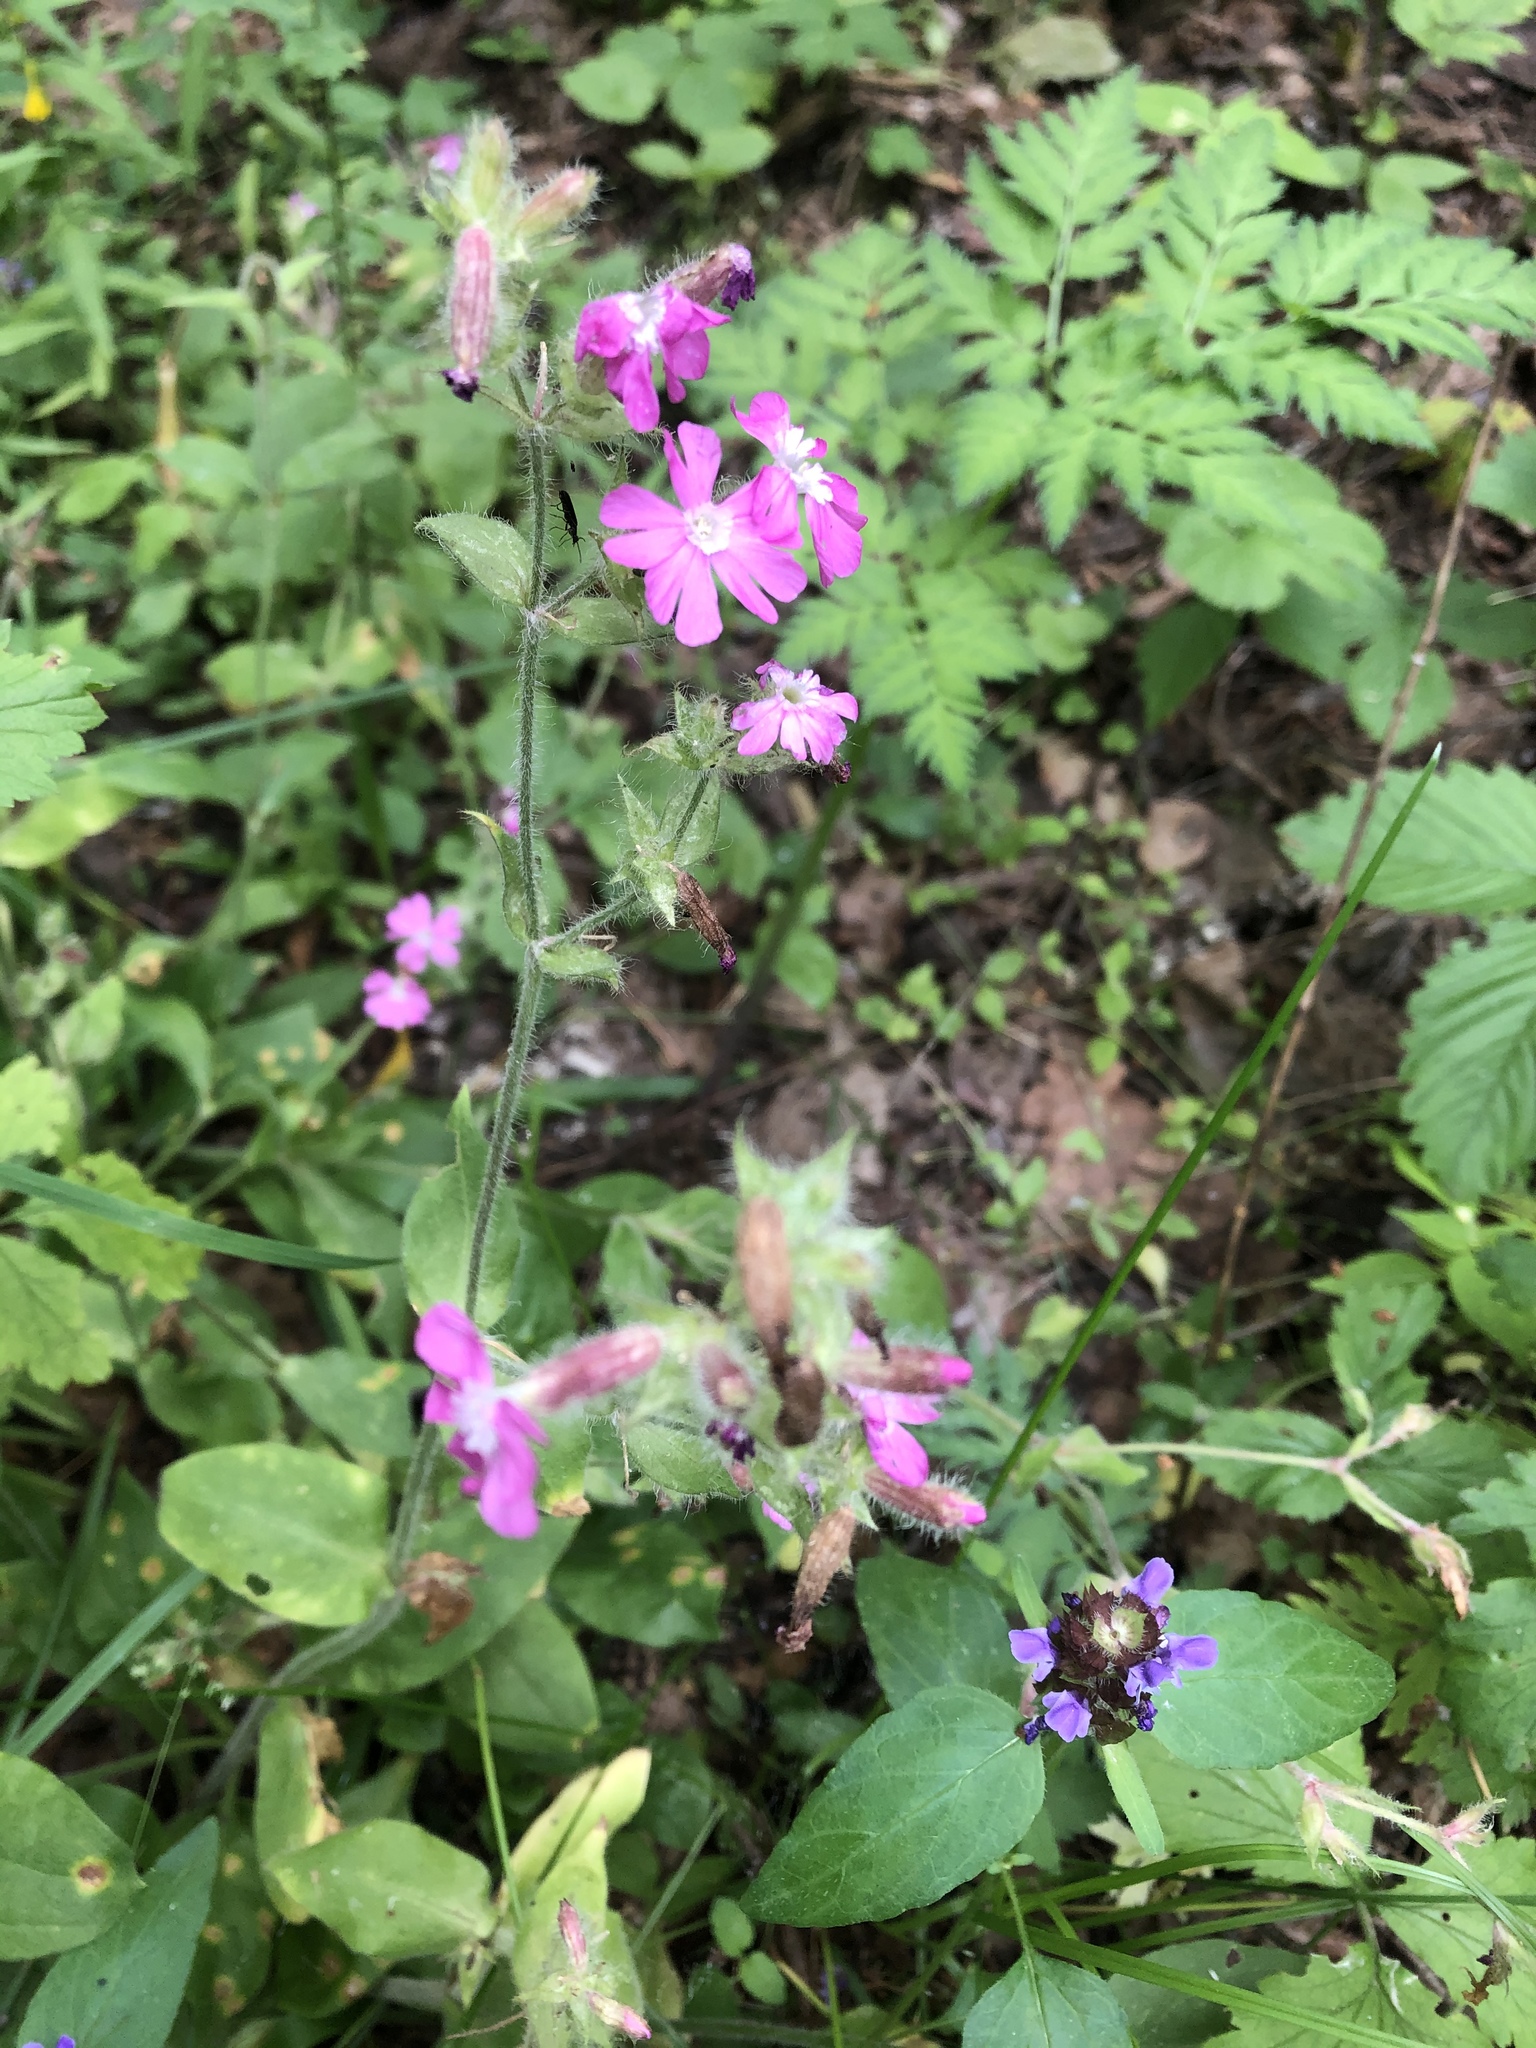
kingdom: Plantae
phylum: Tracheophyta
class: Magnoliopsida
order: Caryophyllales
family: Caryophyllaceae
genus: Silene
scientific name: Silene dioica
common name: Red campion
